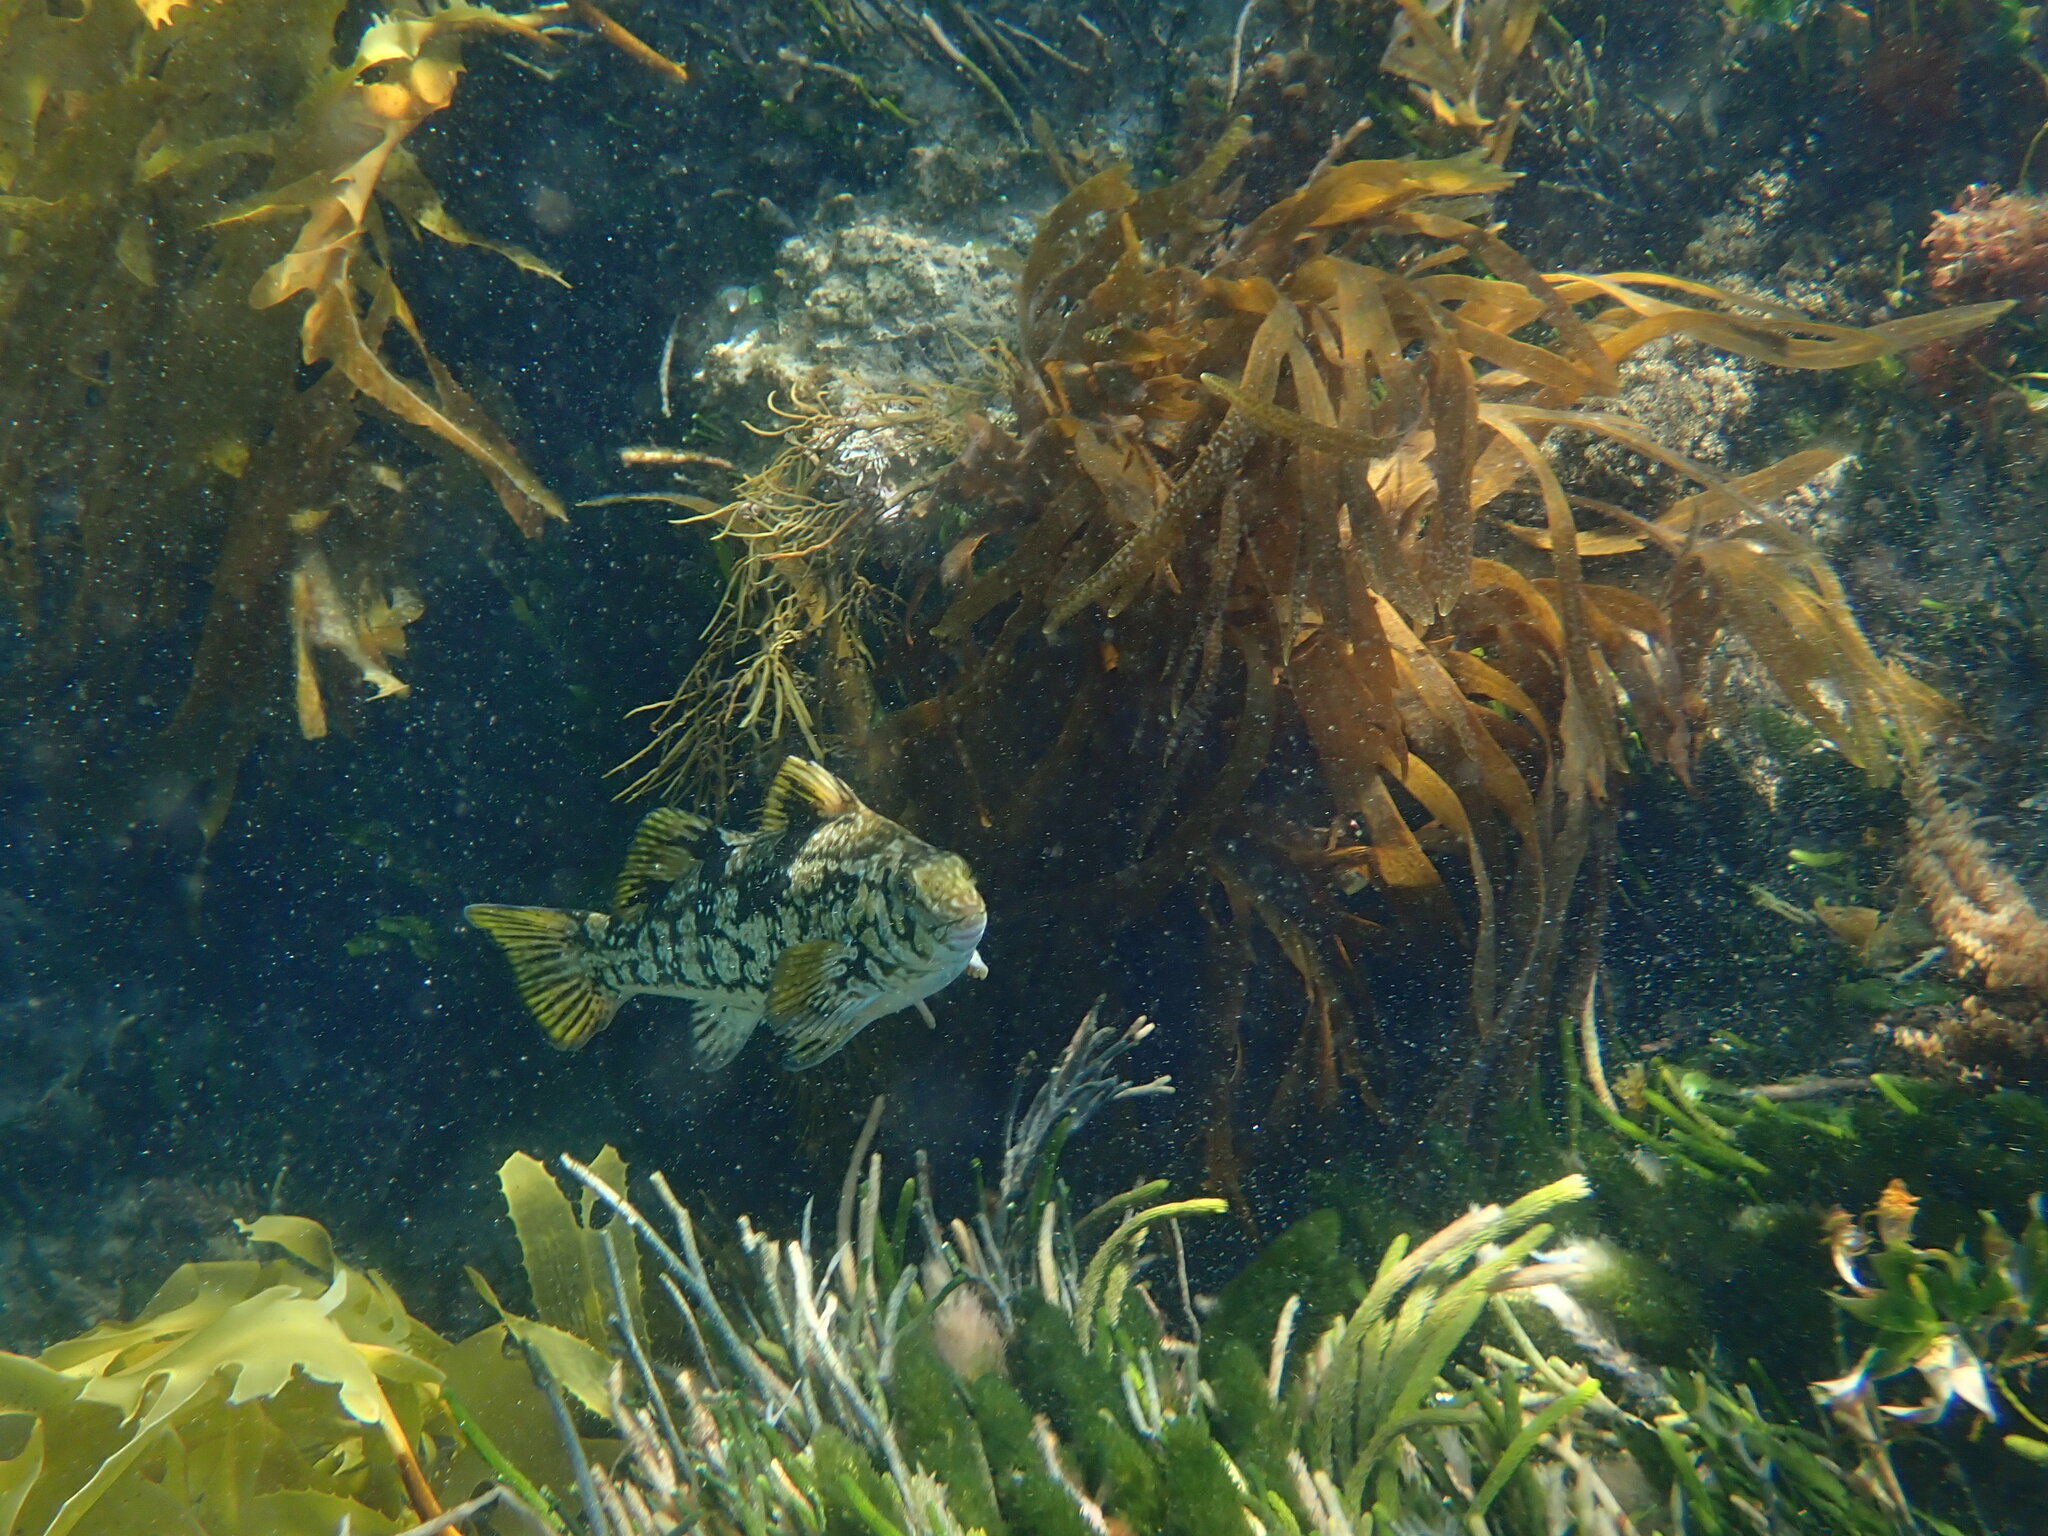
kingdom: Animalia
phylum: Chordata
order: Perciformes
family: Aplodactylidae
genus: Aplodactylus
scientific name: Aplodactylus arctidens
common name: Marblefish
